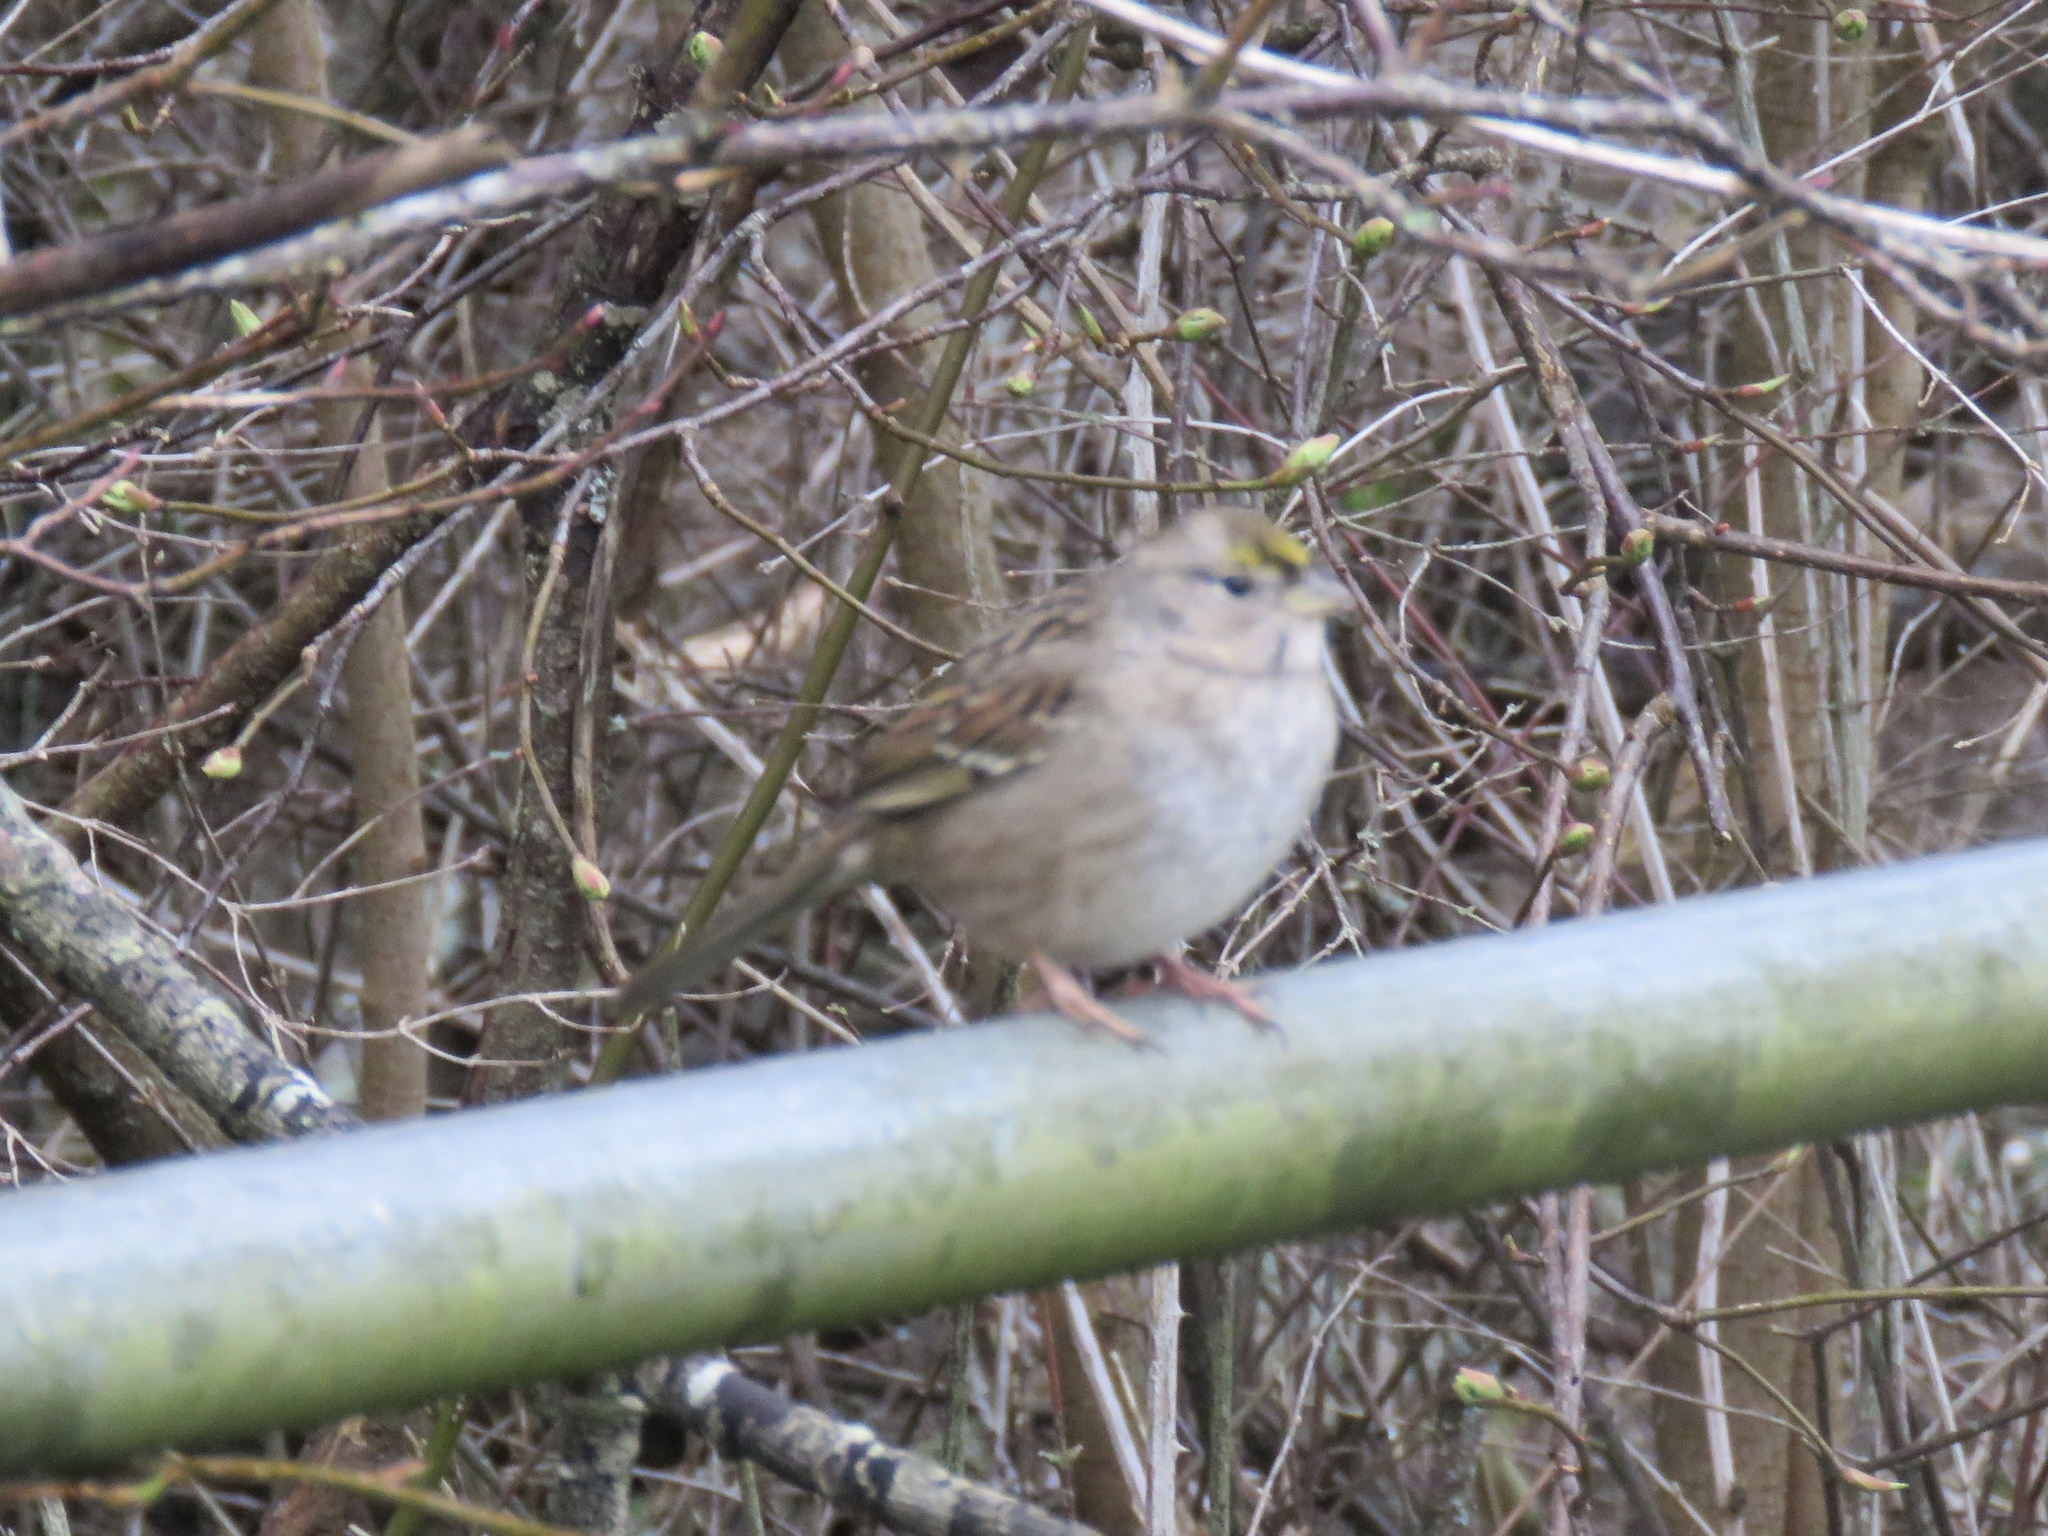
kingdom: Animalia
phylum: Chordata
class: Aves
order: Passeriformes
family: Passerellidae
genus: Zonotrichia
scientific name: Zonotrichia atricapilla
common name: Golden-crowned sparrow
